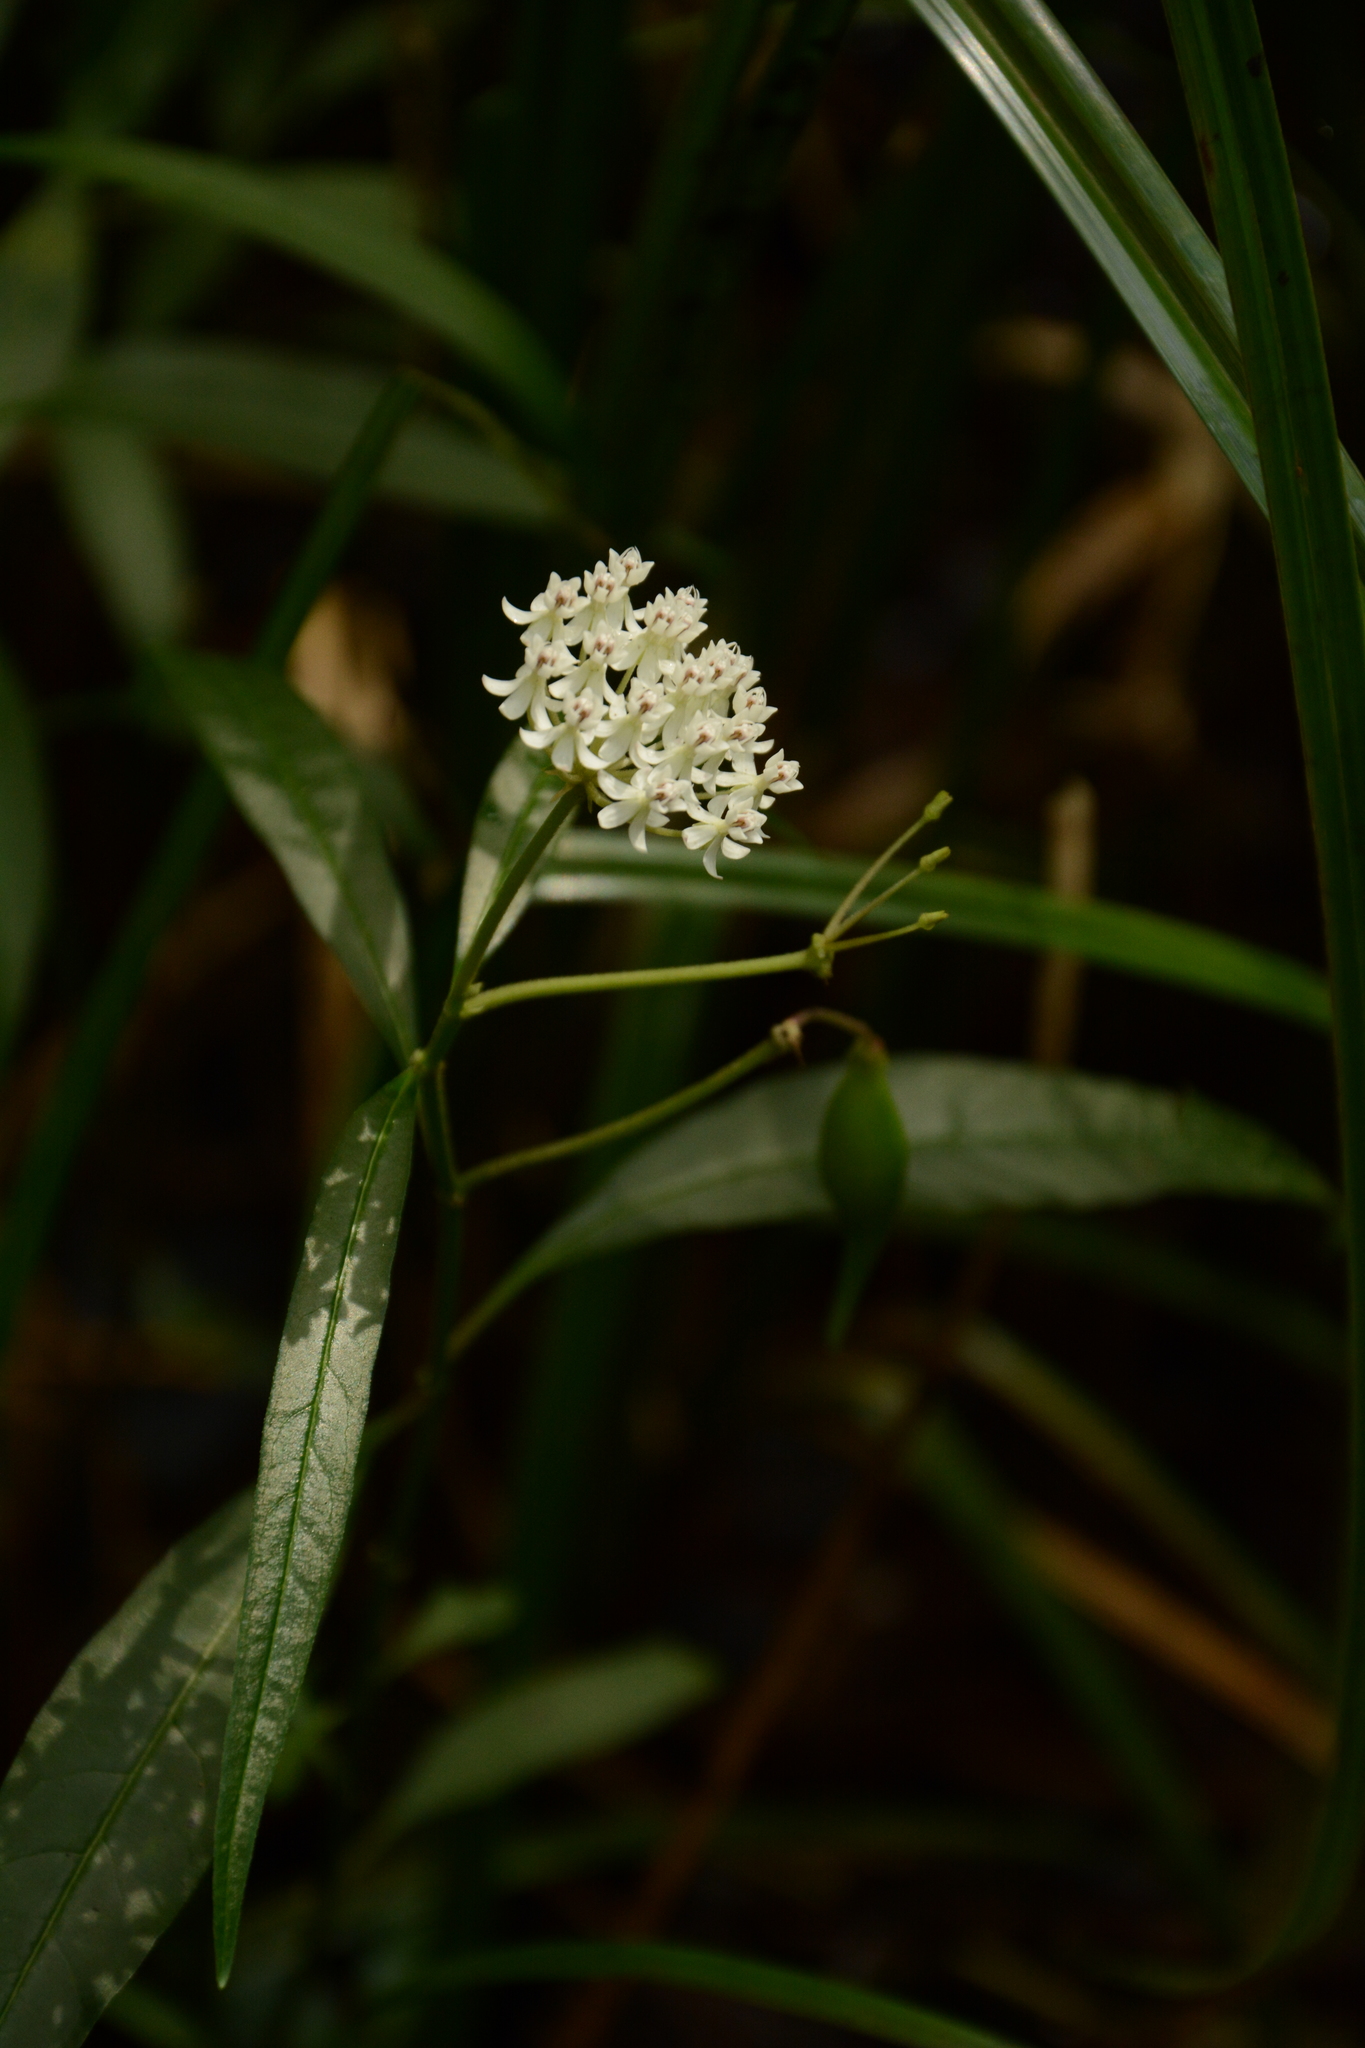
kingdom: Plantae
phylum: Tracheophyta
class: Magnoliopsida
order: Gentianales
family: Apocynaceae
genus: Asclepias
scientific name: Asclepias perennis
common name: Smooth-seed milkweed
